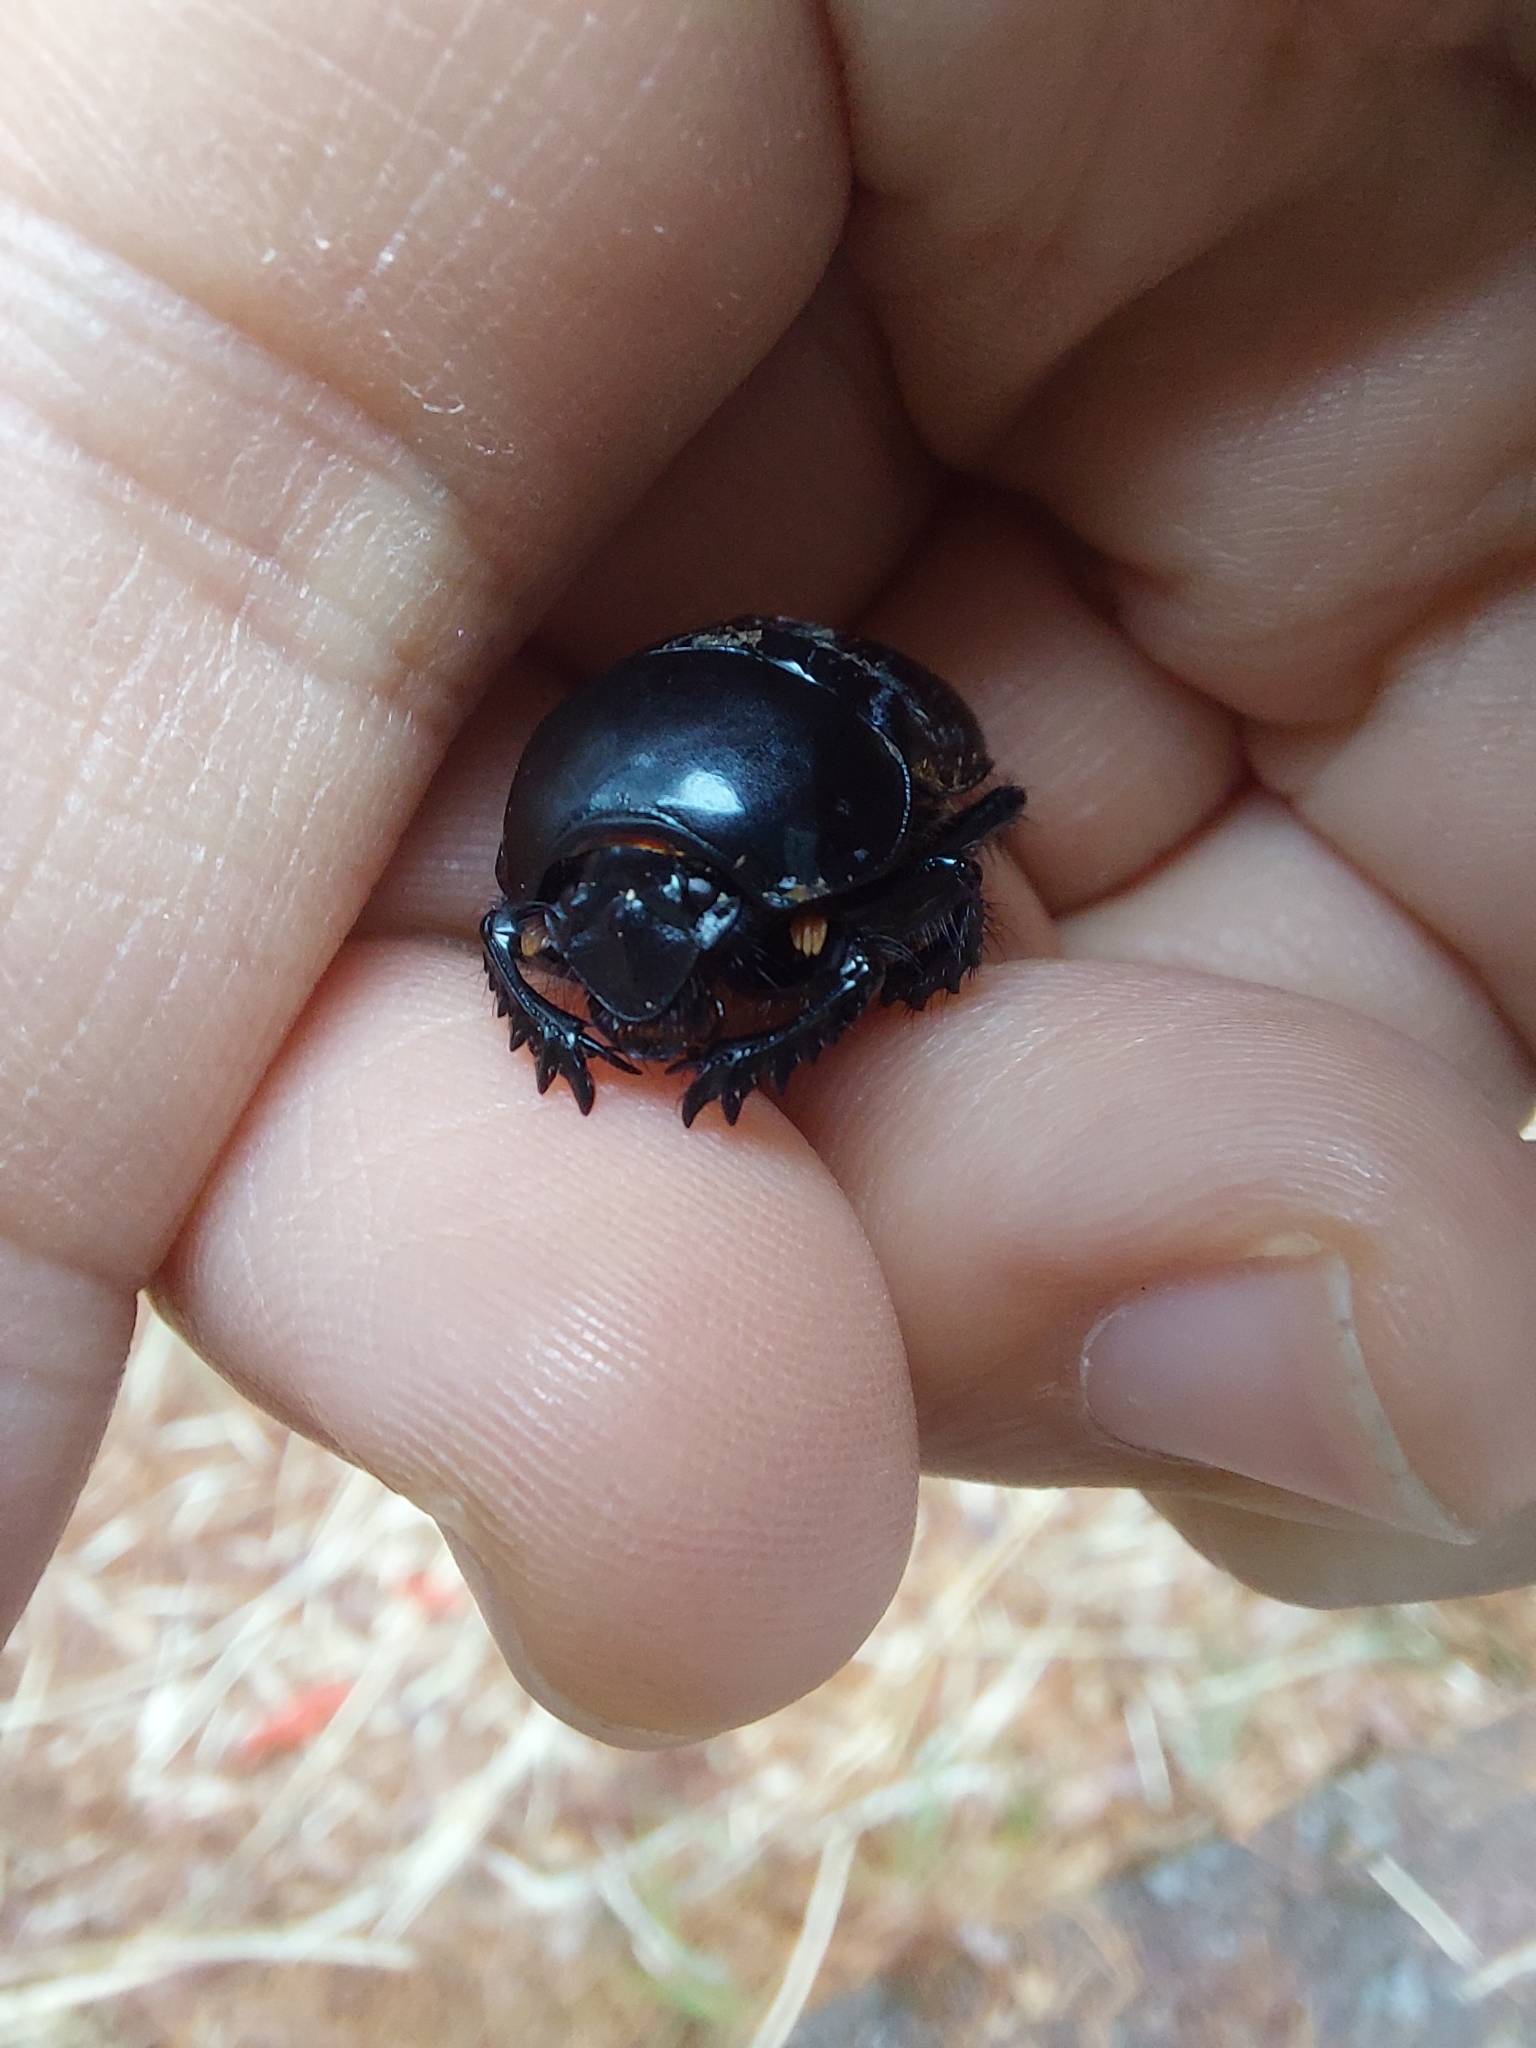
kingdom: Animalia
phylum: Arthropoda
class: Insecta
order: Coleoptera
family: Geotrupidae
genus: Phelotrupes
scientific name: Phelotrupes formosanus
